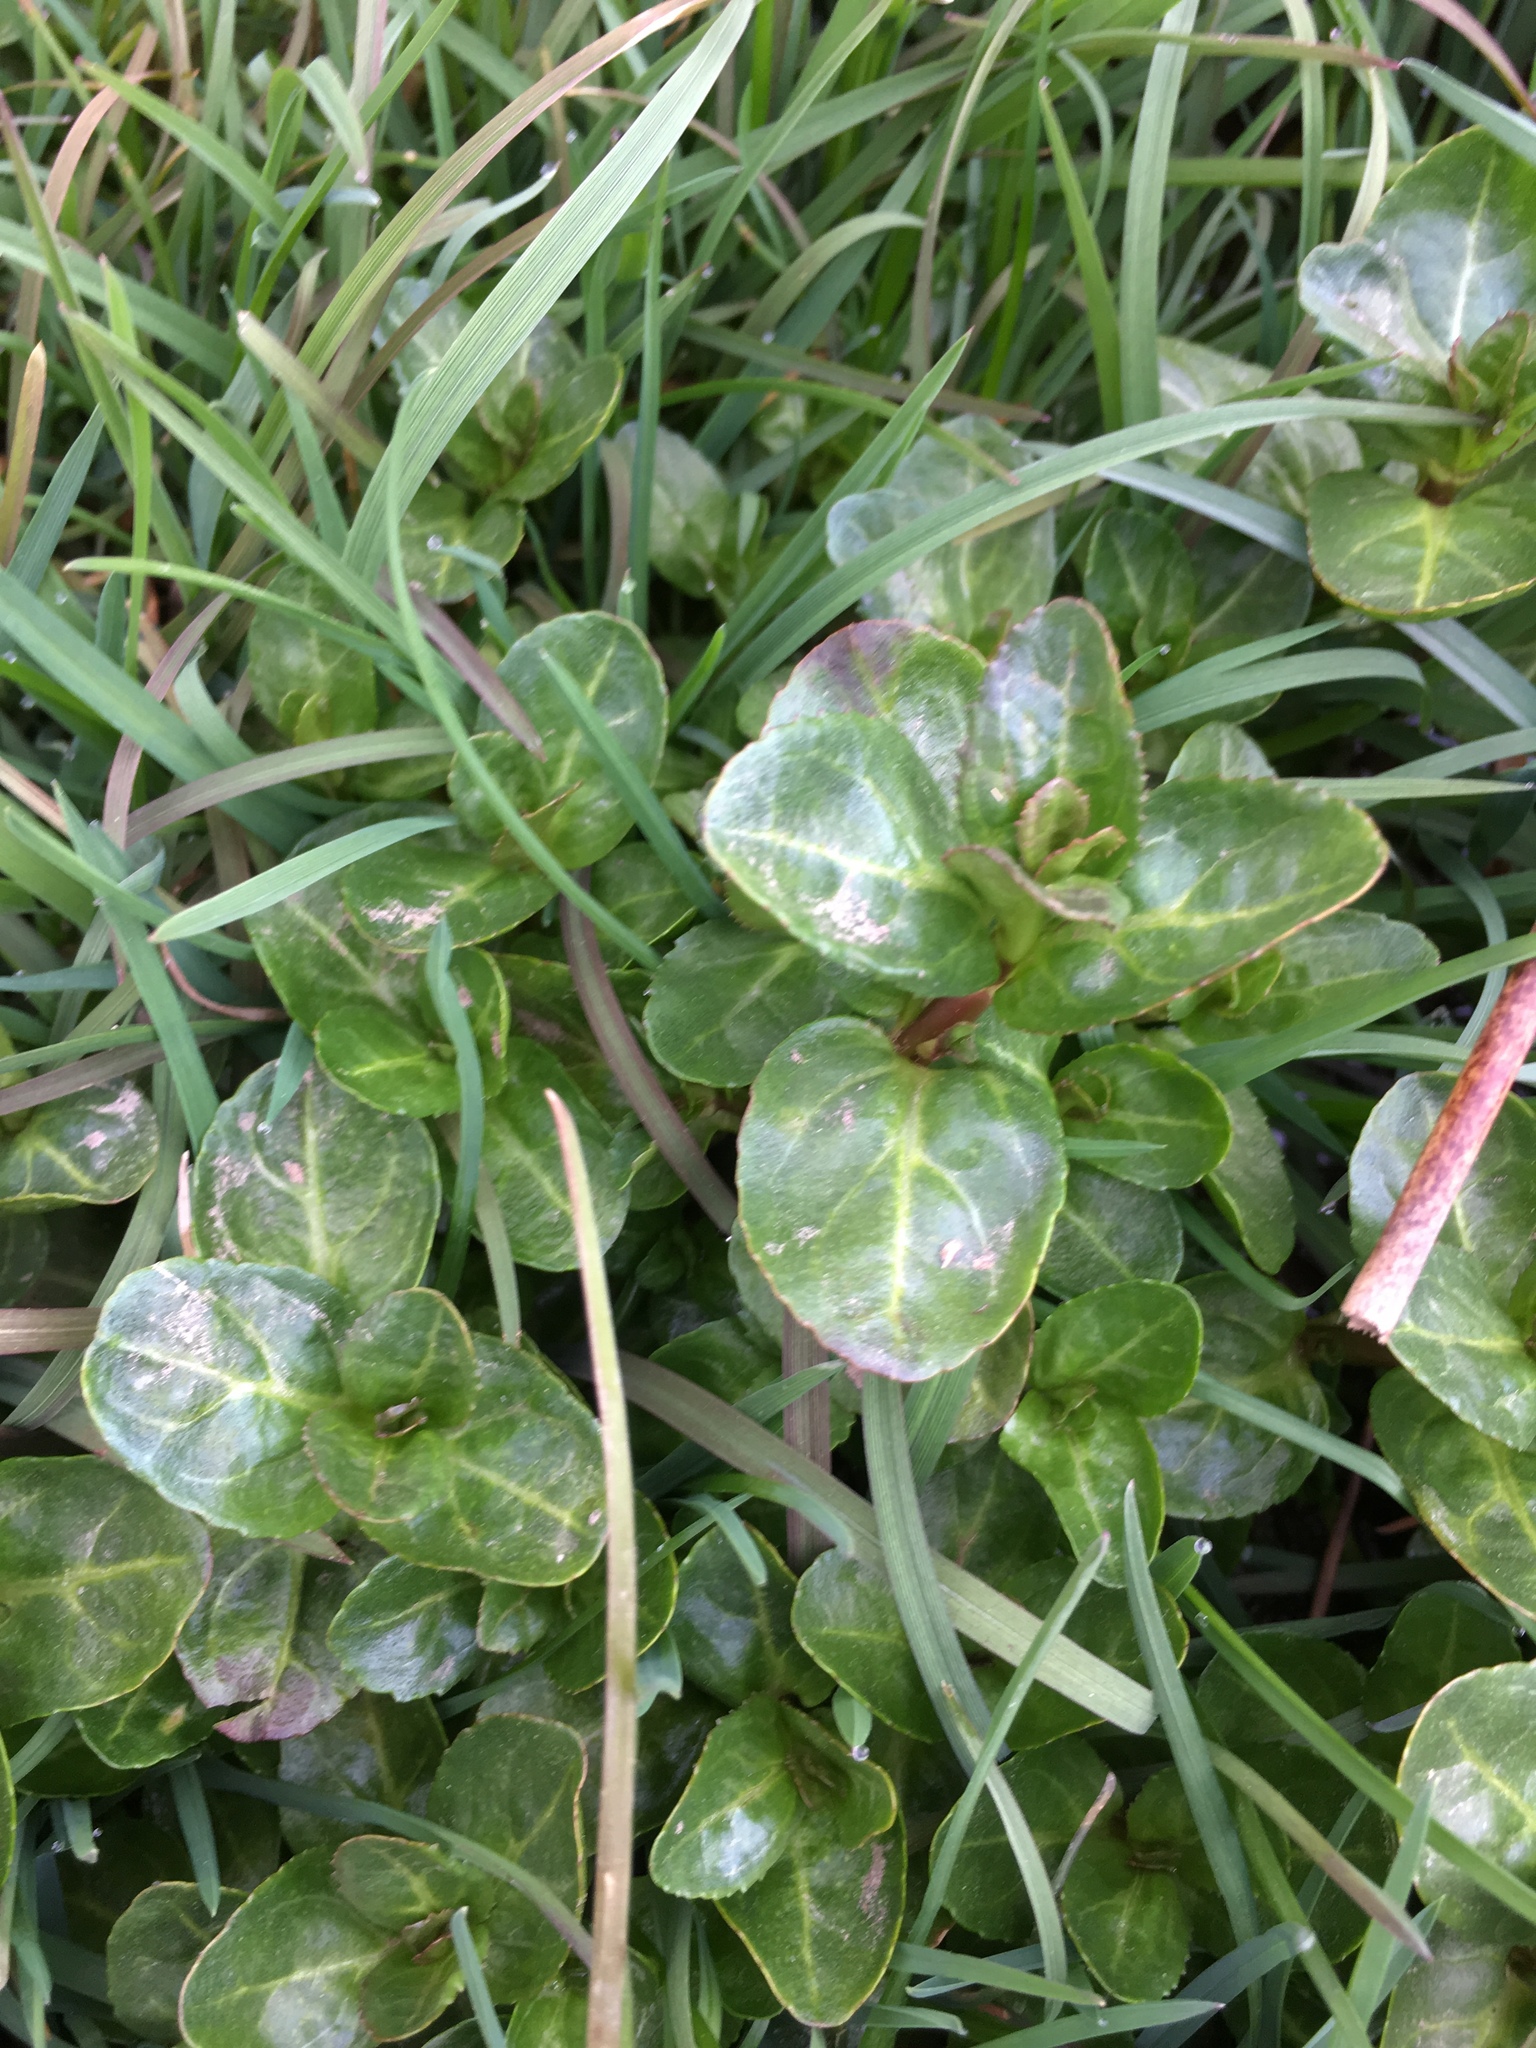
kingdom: Plantae
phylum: Tracheophyta
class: Magnoliopsida
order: Lamiales
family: Plantaginaceae
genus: Veronica
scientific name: Veronica beccabunga
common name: Brooklime
